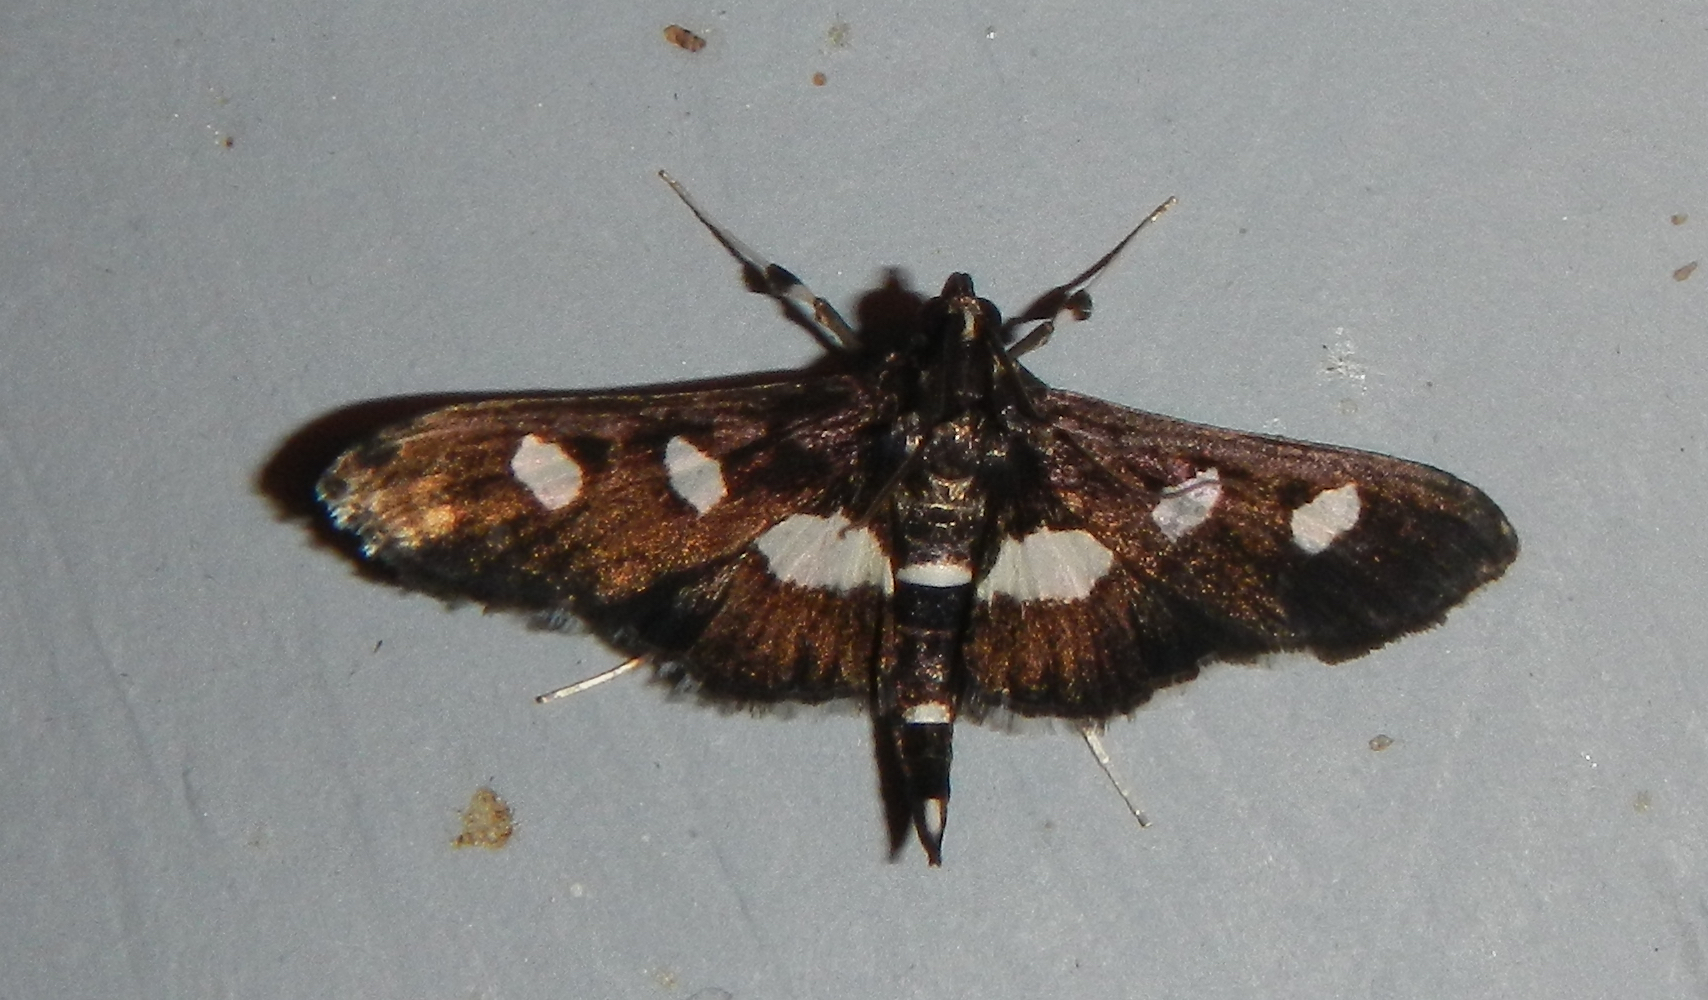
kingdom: Animalia
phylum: Arthropoda
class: Insecta
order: Lepidoptera
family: Crambidae
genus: Desmia
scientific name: Desmia
